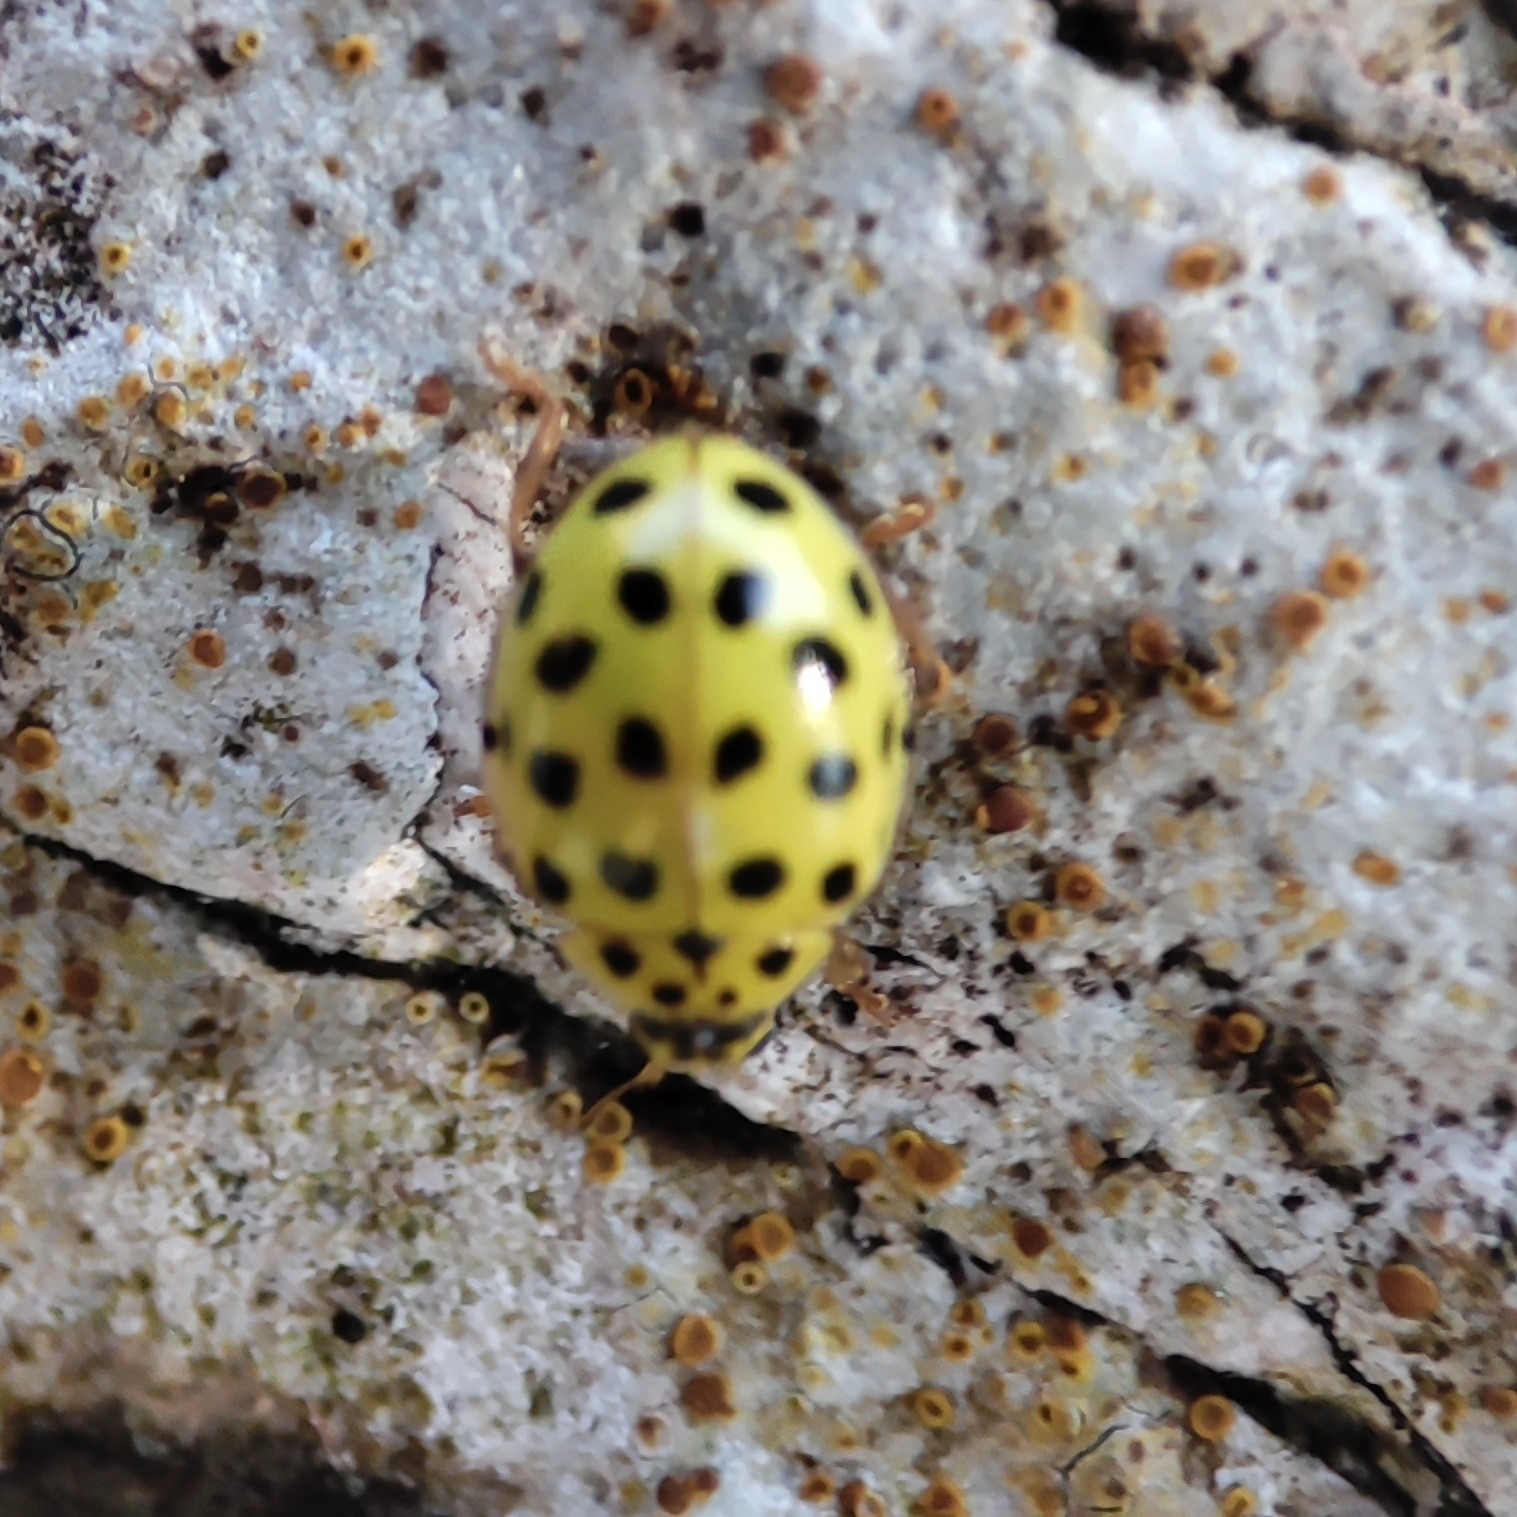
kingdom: Animalia
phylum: Arthropoda
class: Insecta
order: Coleoptera
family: Coccinellidae
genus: Psyllobora
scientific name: Psyllobora vigintiduopunctata
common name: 22-spot ladybird
